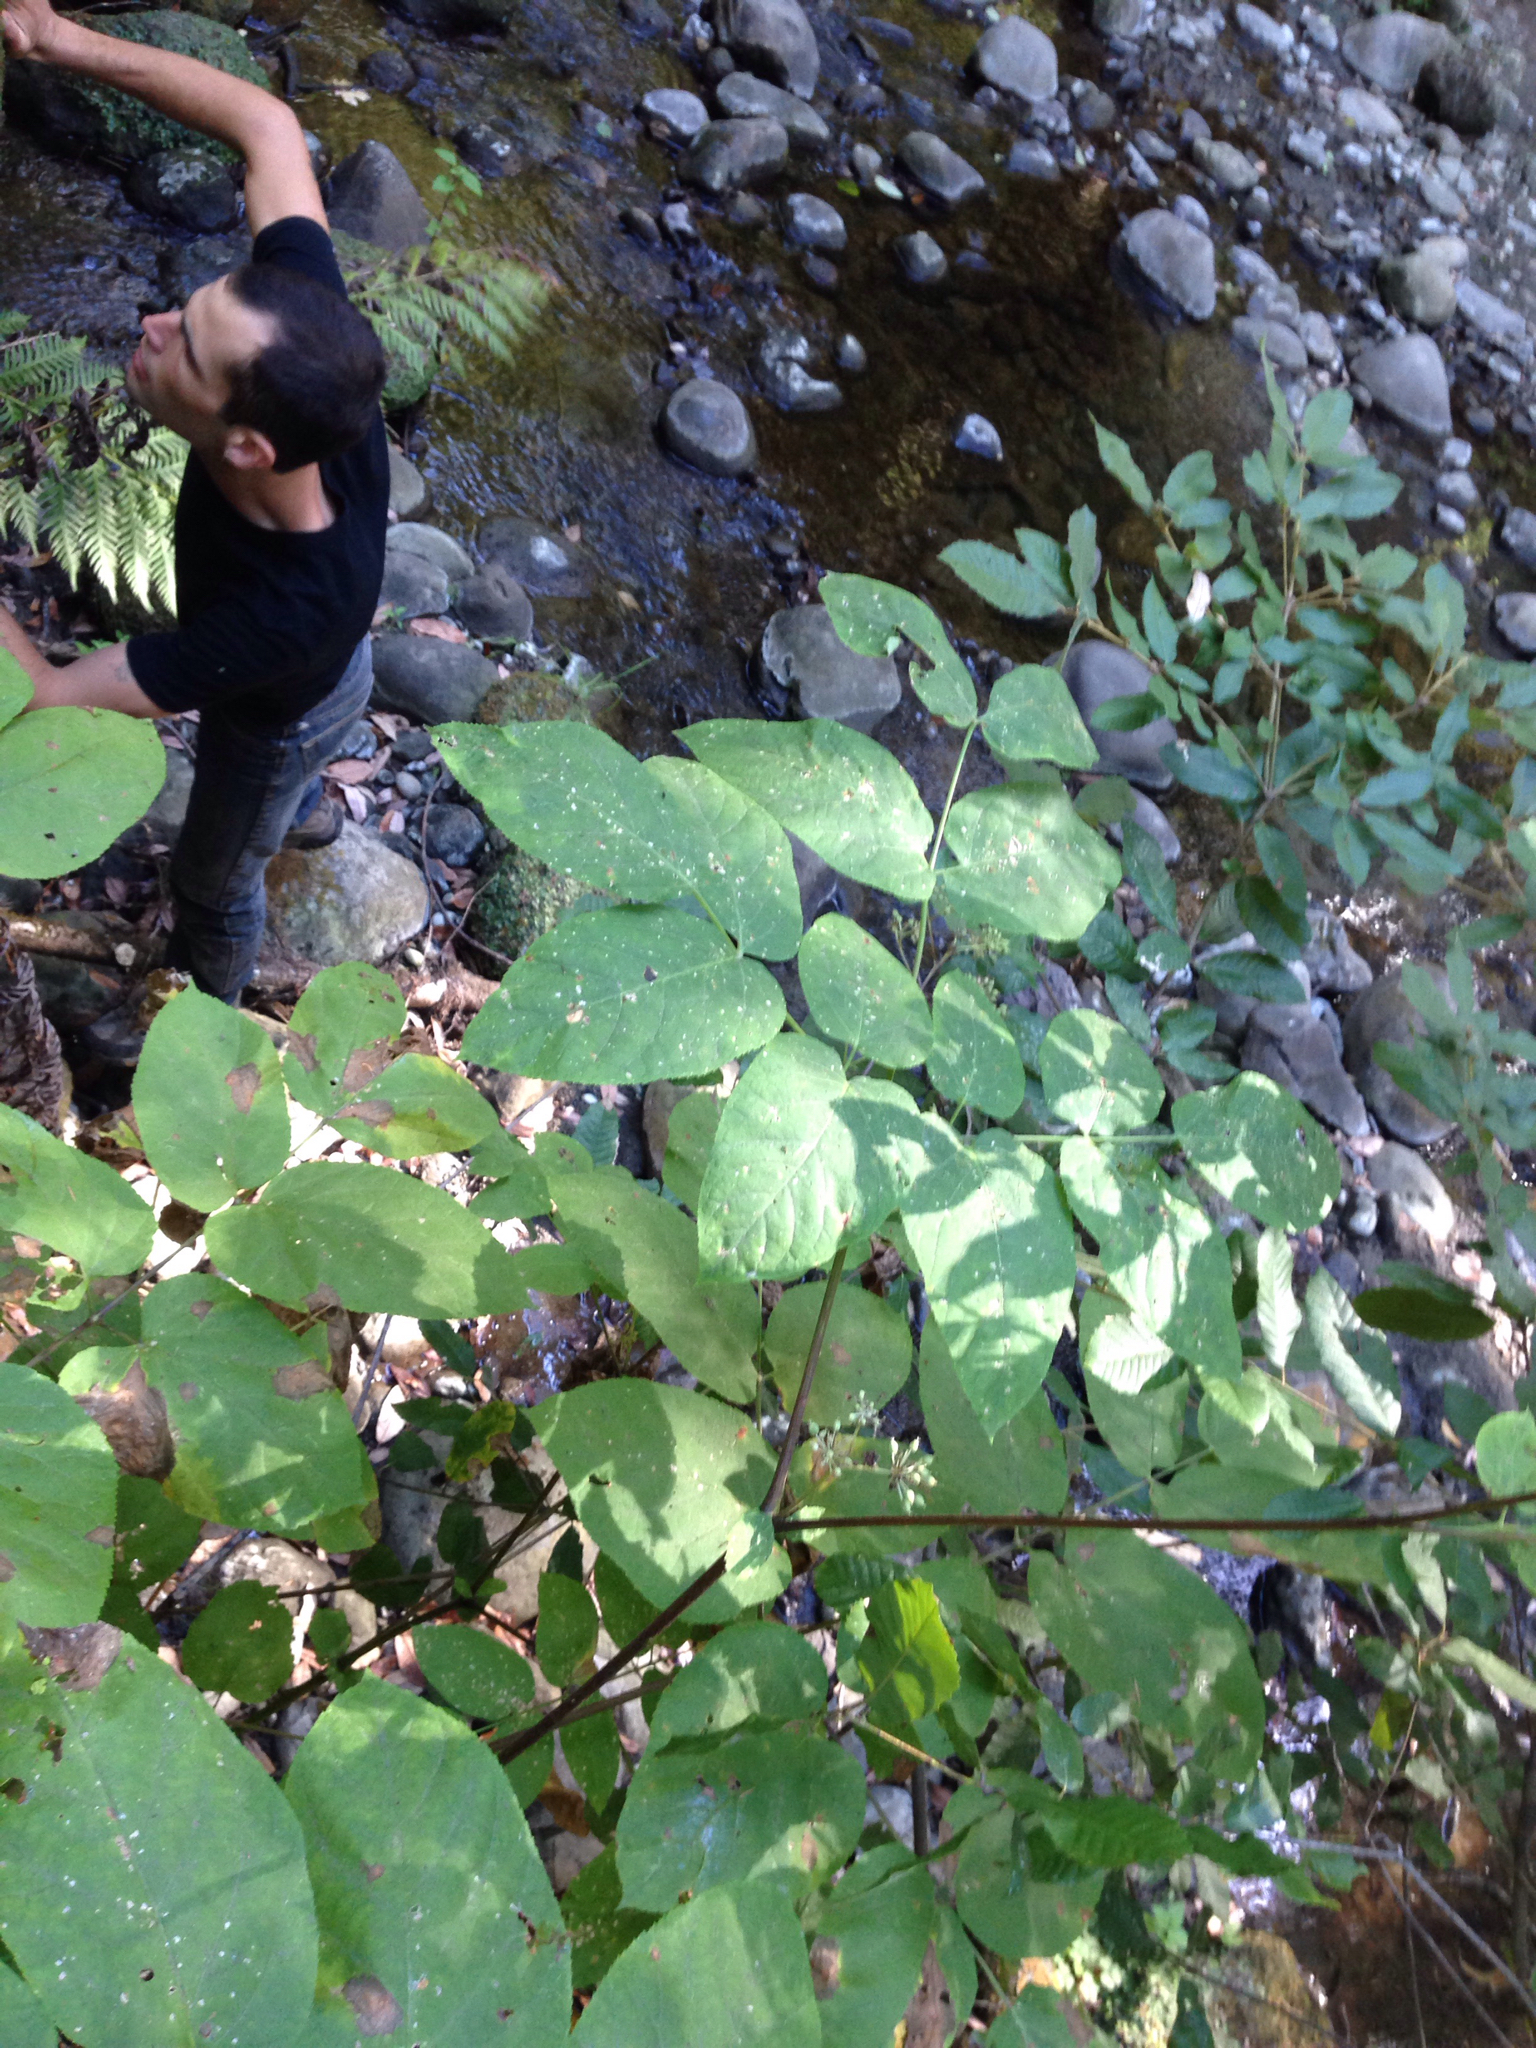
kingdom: Plantae
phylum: Tracheophyta
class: Magnoliopsida
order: Apiales
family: Araliaceae
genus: Aralia
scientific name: Aralia californica
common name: California-ginseng
